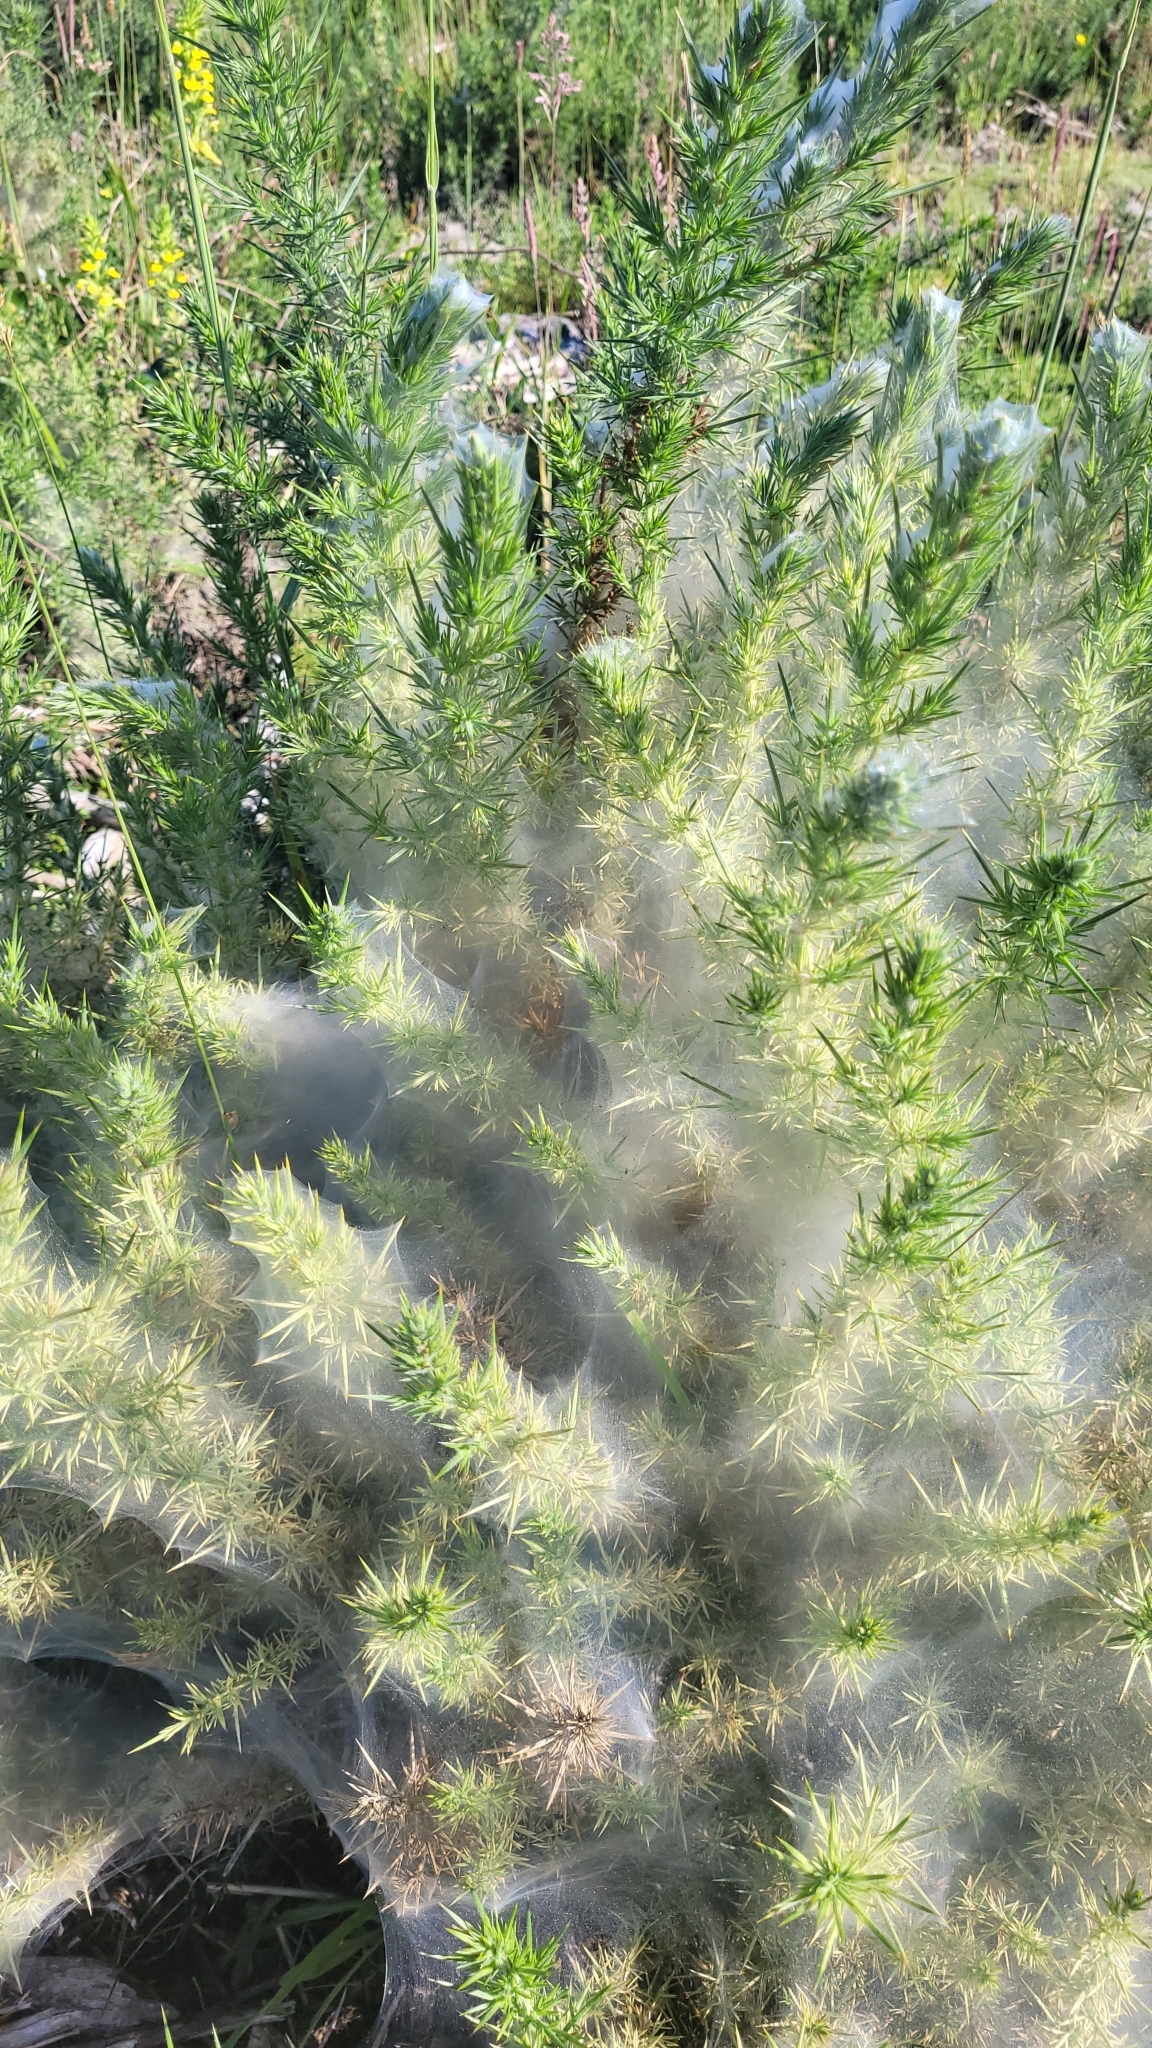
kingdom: Animalia
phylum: Arthropoda
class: Arachnida
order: Trombidiformes
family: Tetranychidae
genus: Tetranychus
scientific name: Tetranychus lintearius
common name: Gorse spider mite
